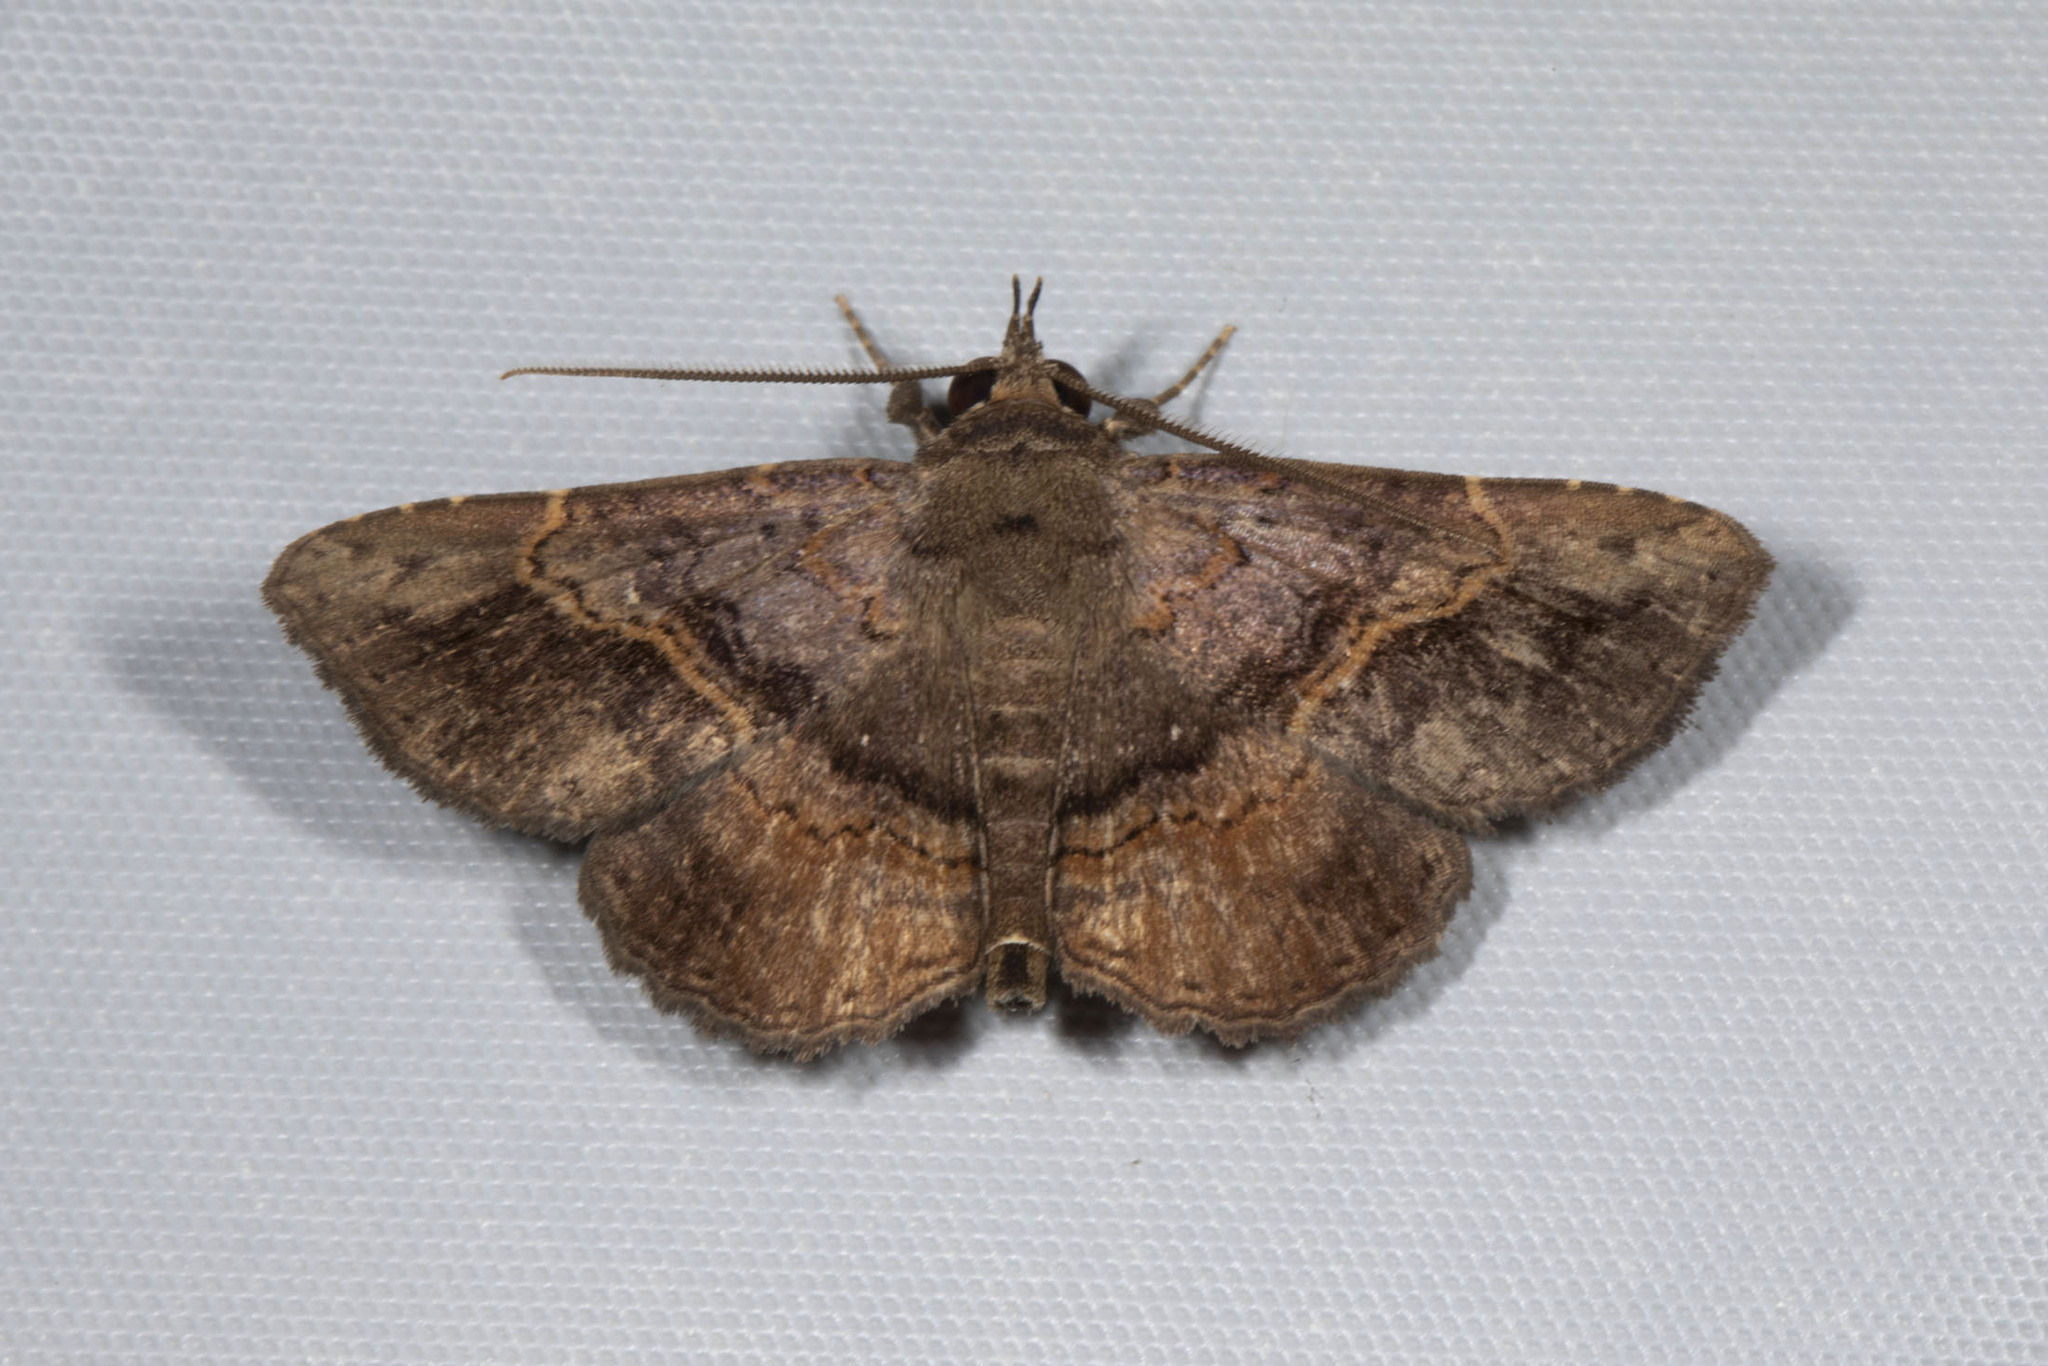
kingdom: Animalia
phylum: Arthropoda
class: Insecta
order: Lepidoptera
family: Erebidae
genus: Phaeoblemma
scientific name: Phaeoblemma contracta
